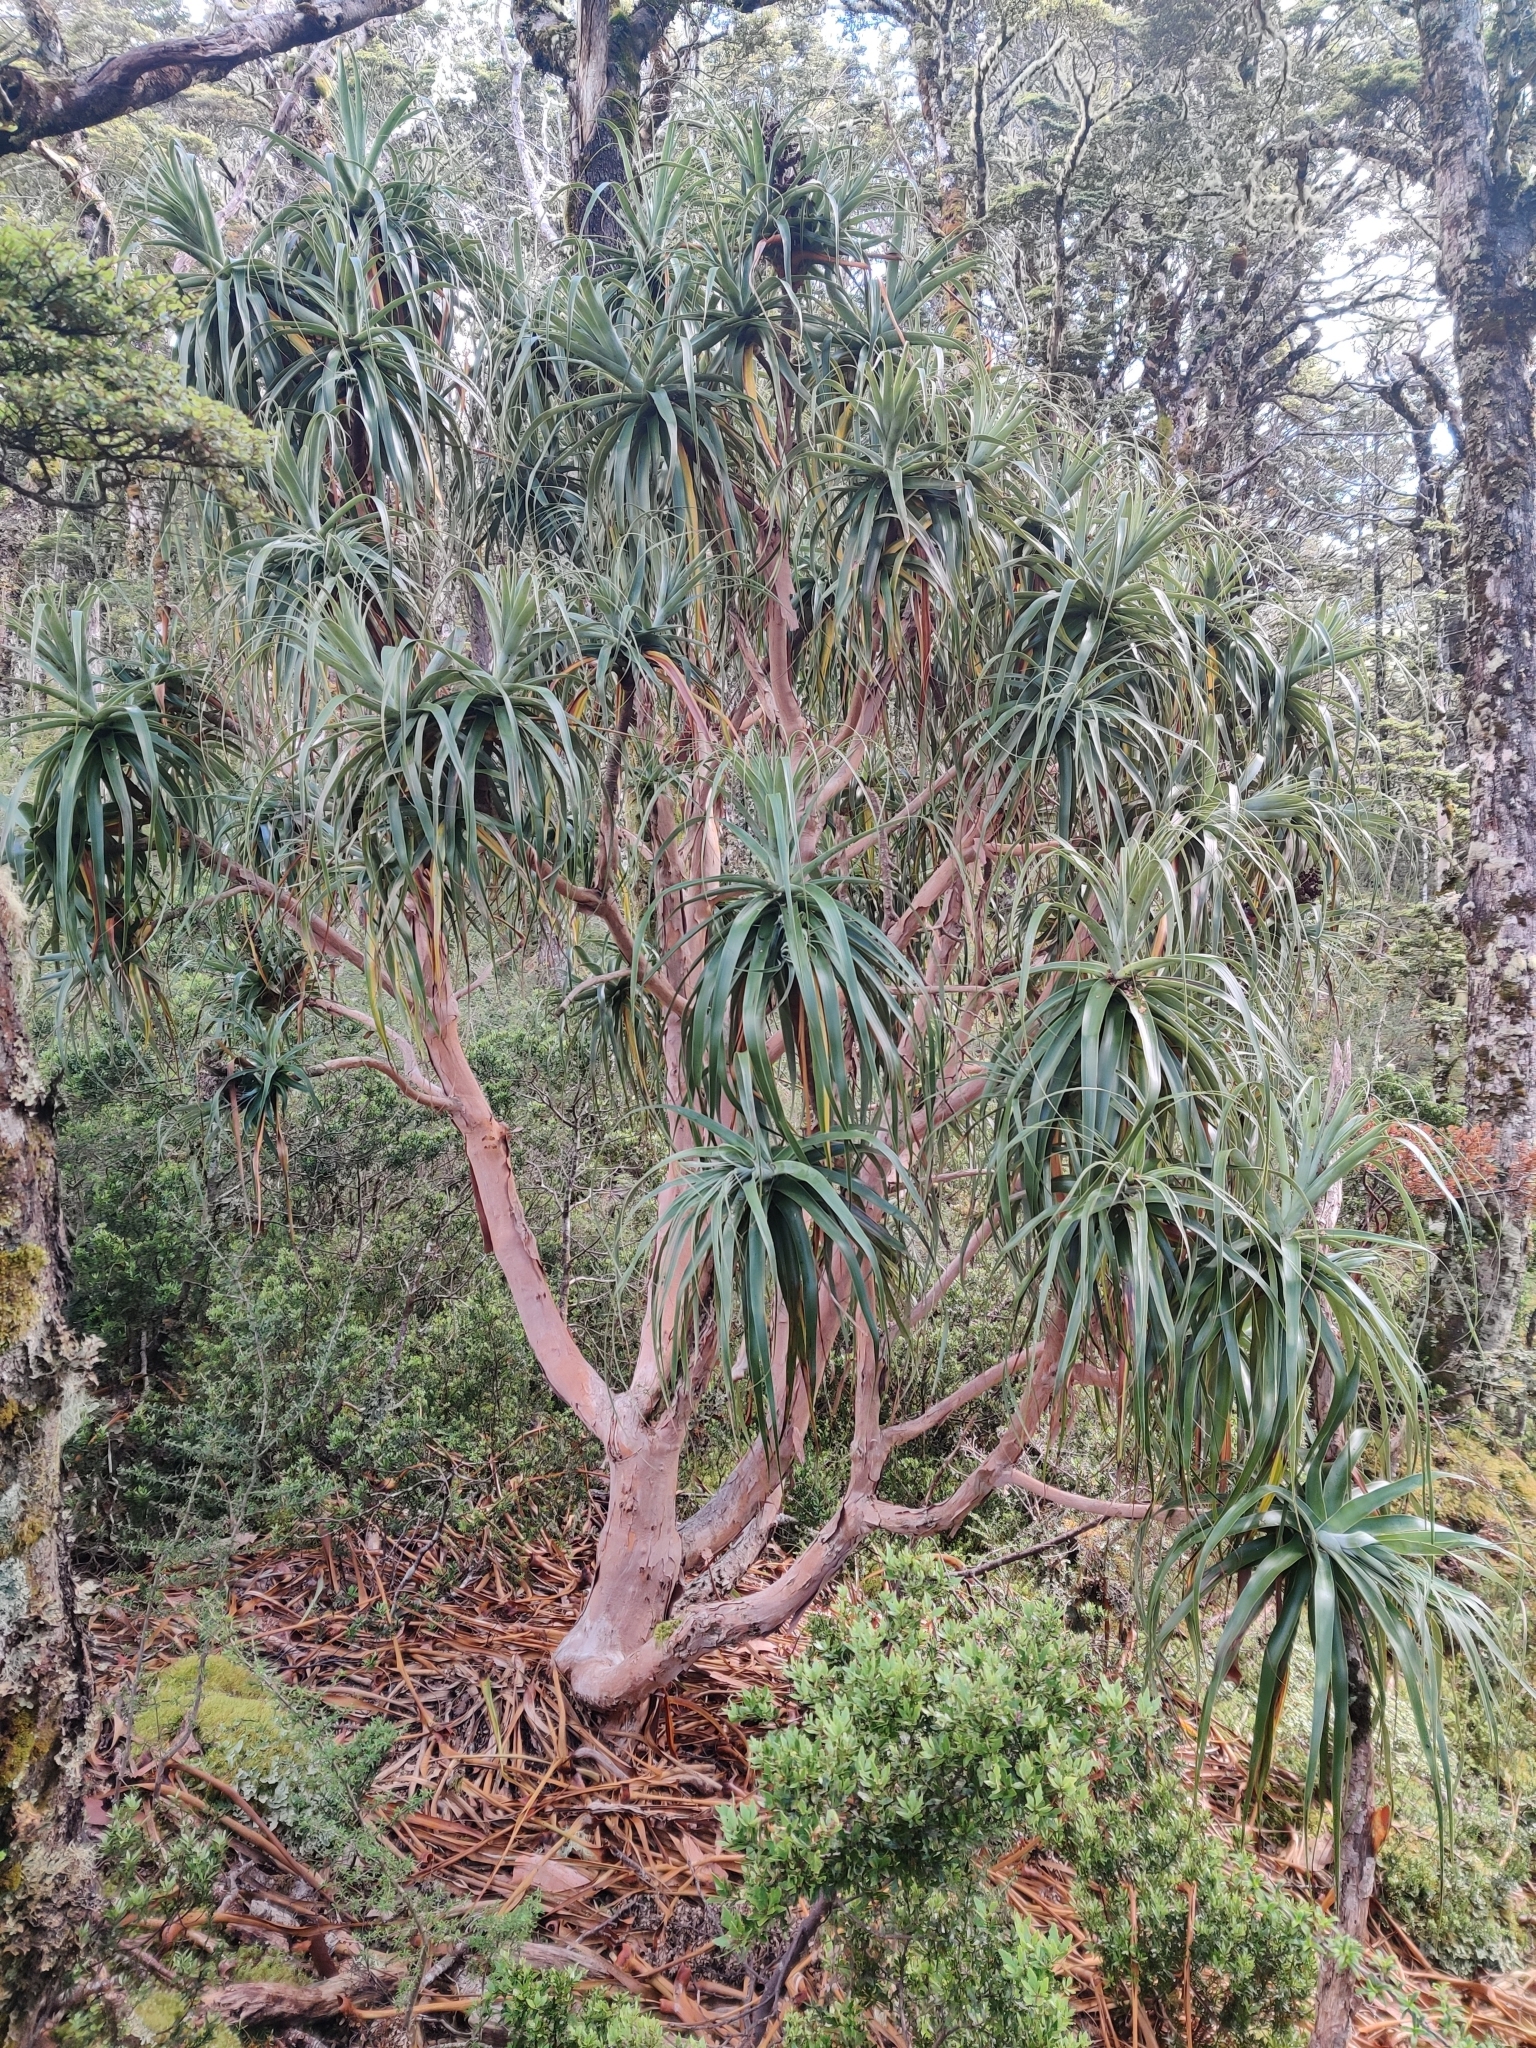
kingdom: Plantae
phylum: Tracheophyta
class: Magnoliopsida
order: Ericales
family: Ericaceae
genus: Dracophyllum
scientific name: Dracophyllum traversii
